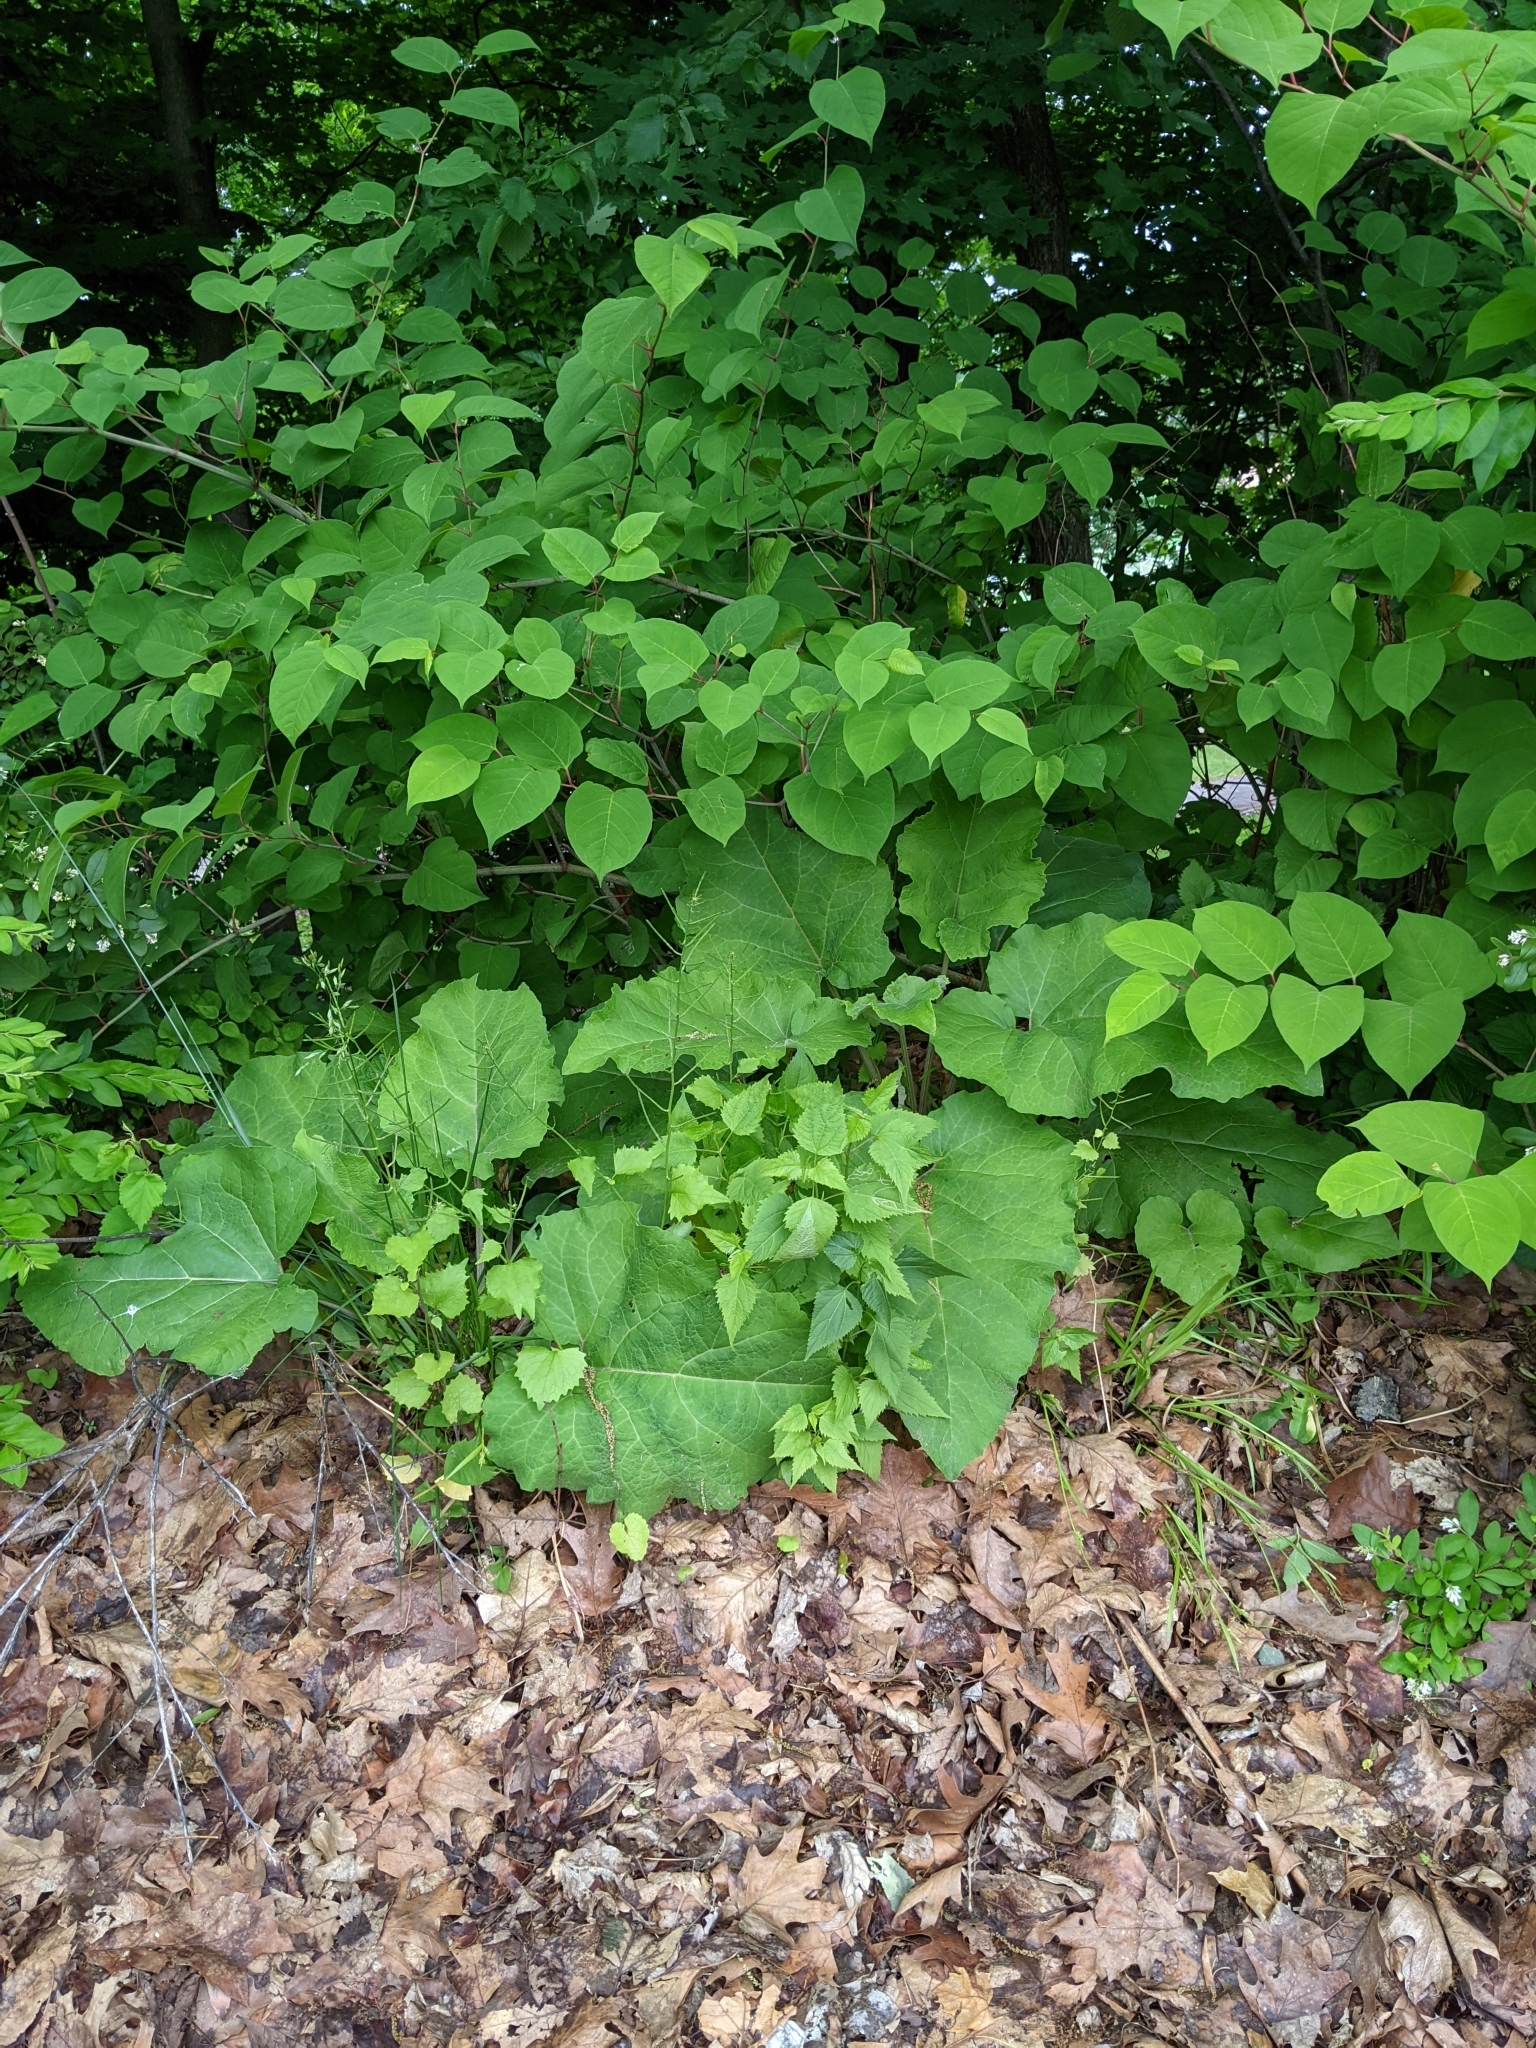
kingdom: Plantae
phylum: Tracheophyta
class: Magnoliopsida
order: Asterales
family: Asteraceae
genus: Arctium
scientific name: Arctium
